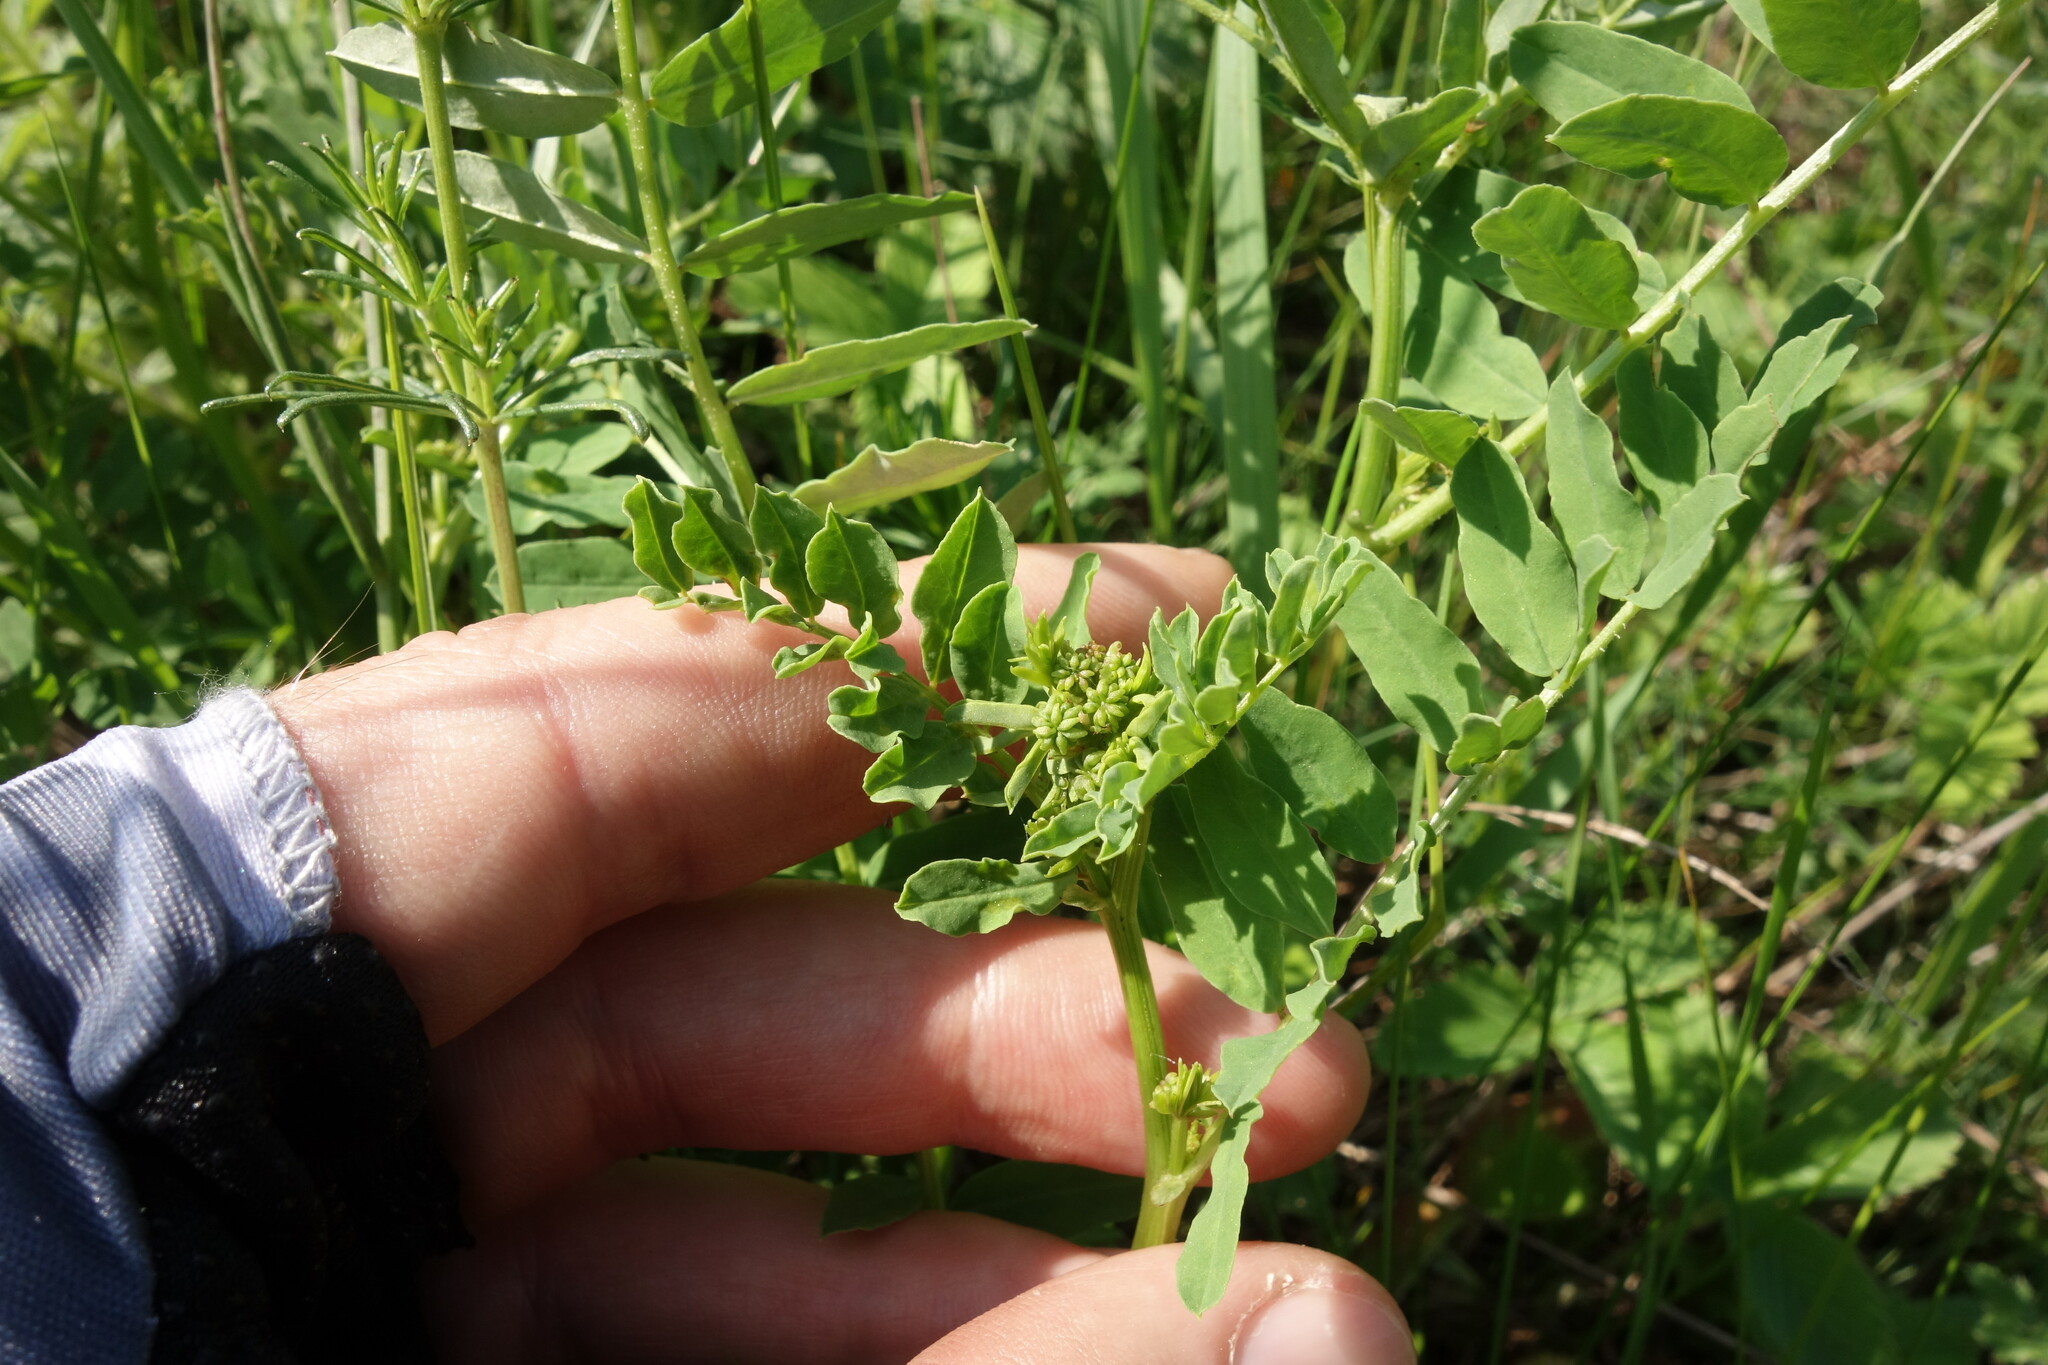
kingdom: Plantae
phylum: Tracheophyta
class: Magnoliopsida
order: Fabales
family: Fabaceae
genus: Coronilla
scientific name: Coronilla varia
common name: Crownvetch
